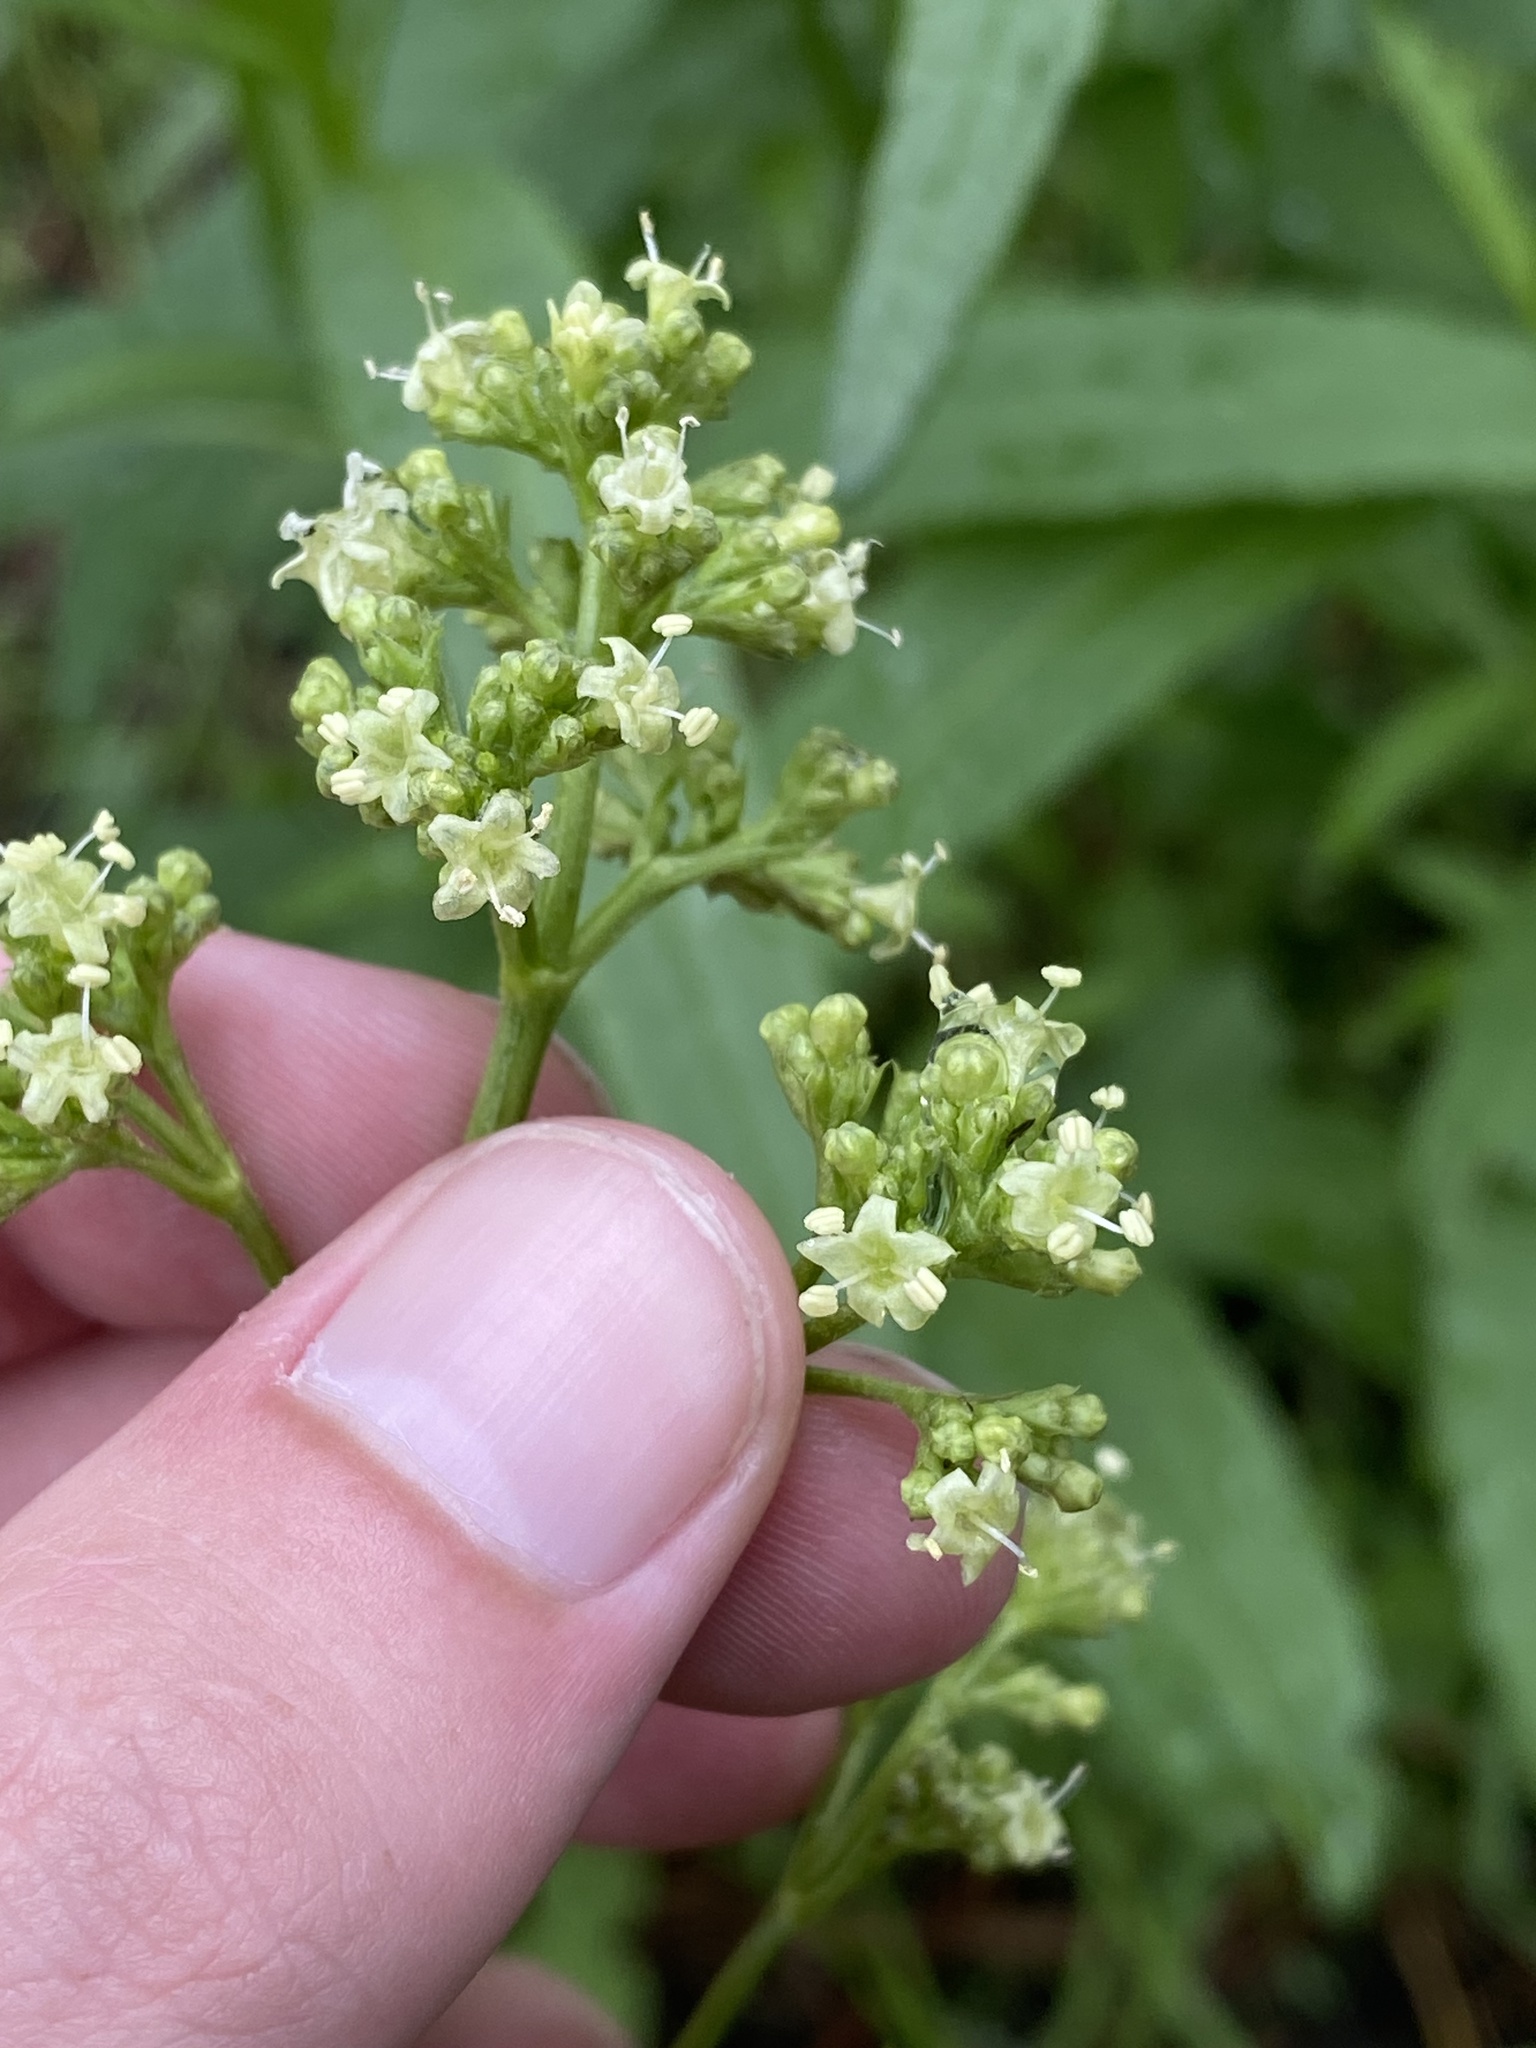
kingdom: Plantae
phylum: Tracheophyta
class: Magnoliopsida
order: Dipsacales
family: Caprifoliaceae
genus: Valeriana
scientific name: Valeriana edulis
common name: Taproot valerian
